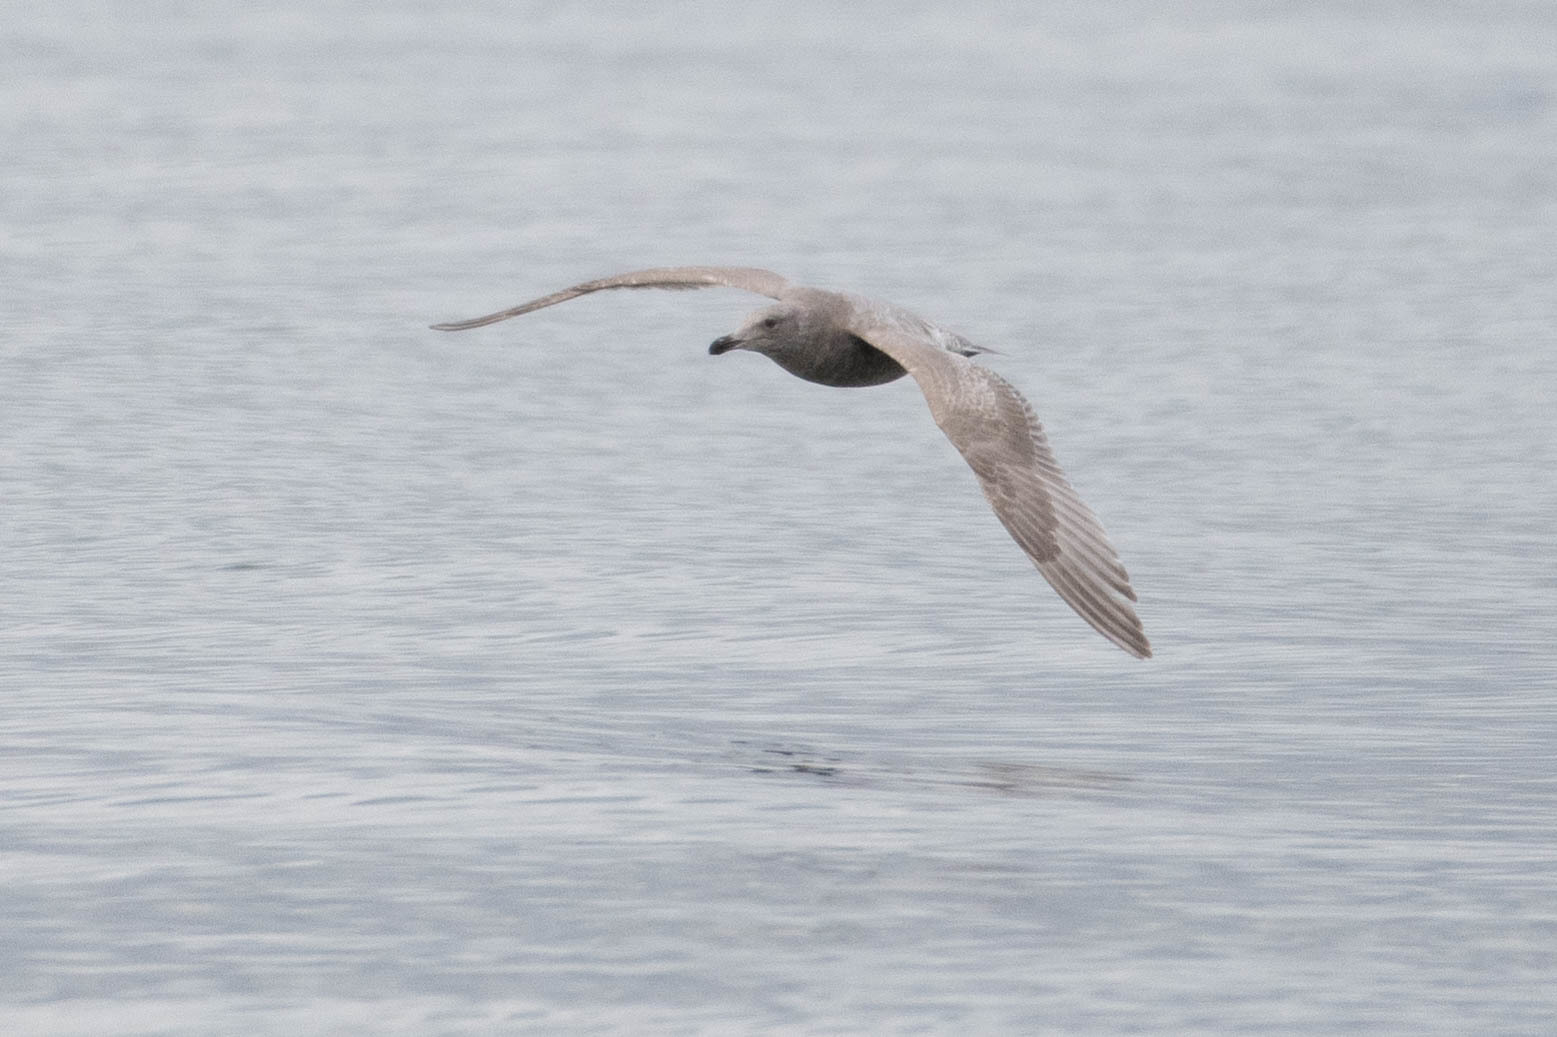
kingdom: Animalia
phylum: Chordata
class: Aves
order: Charadriiformes
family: Laridae
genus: Larus
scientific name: Larus
